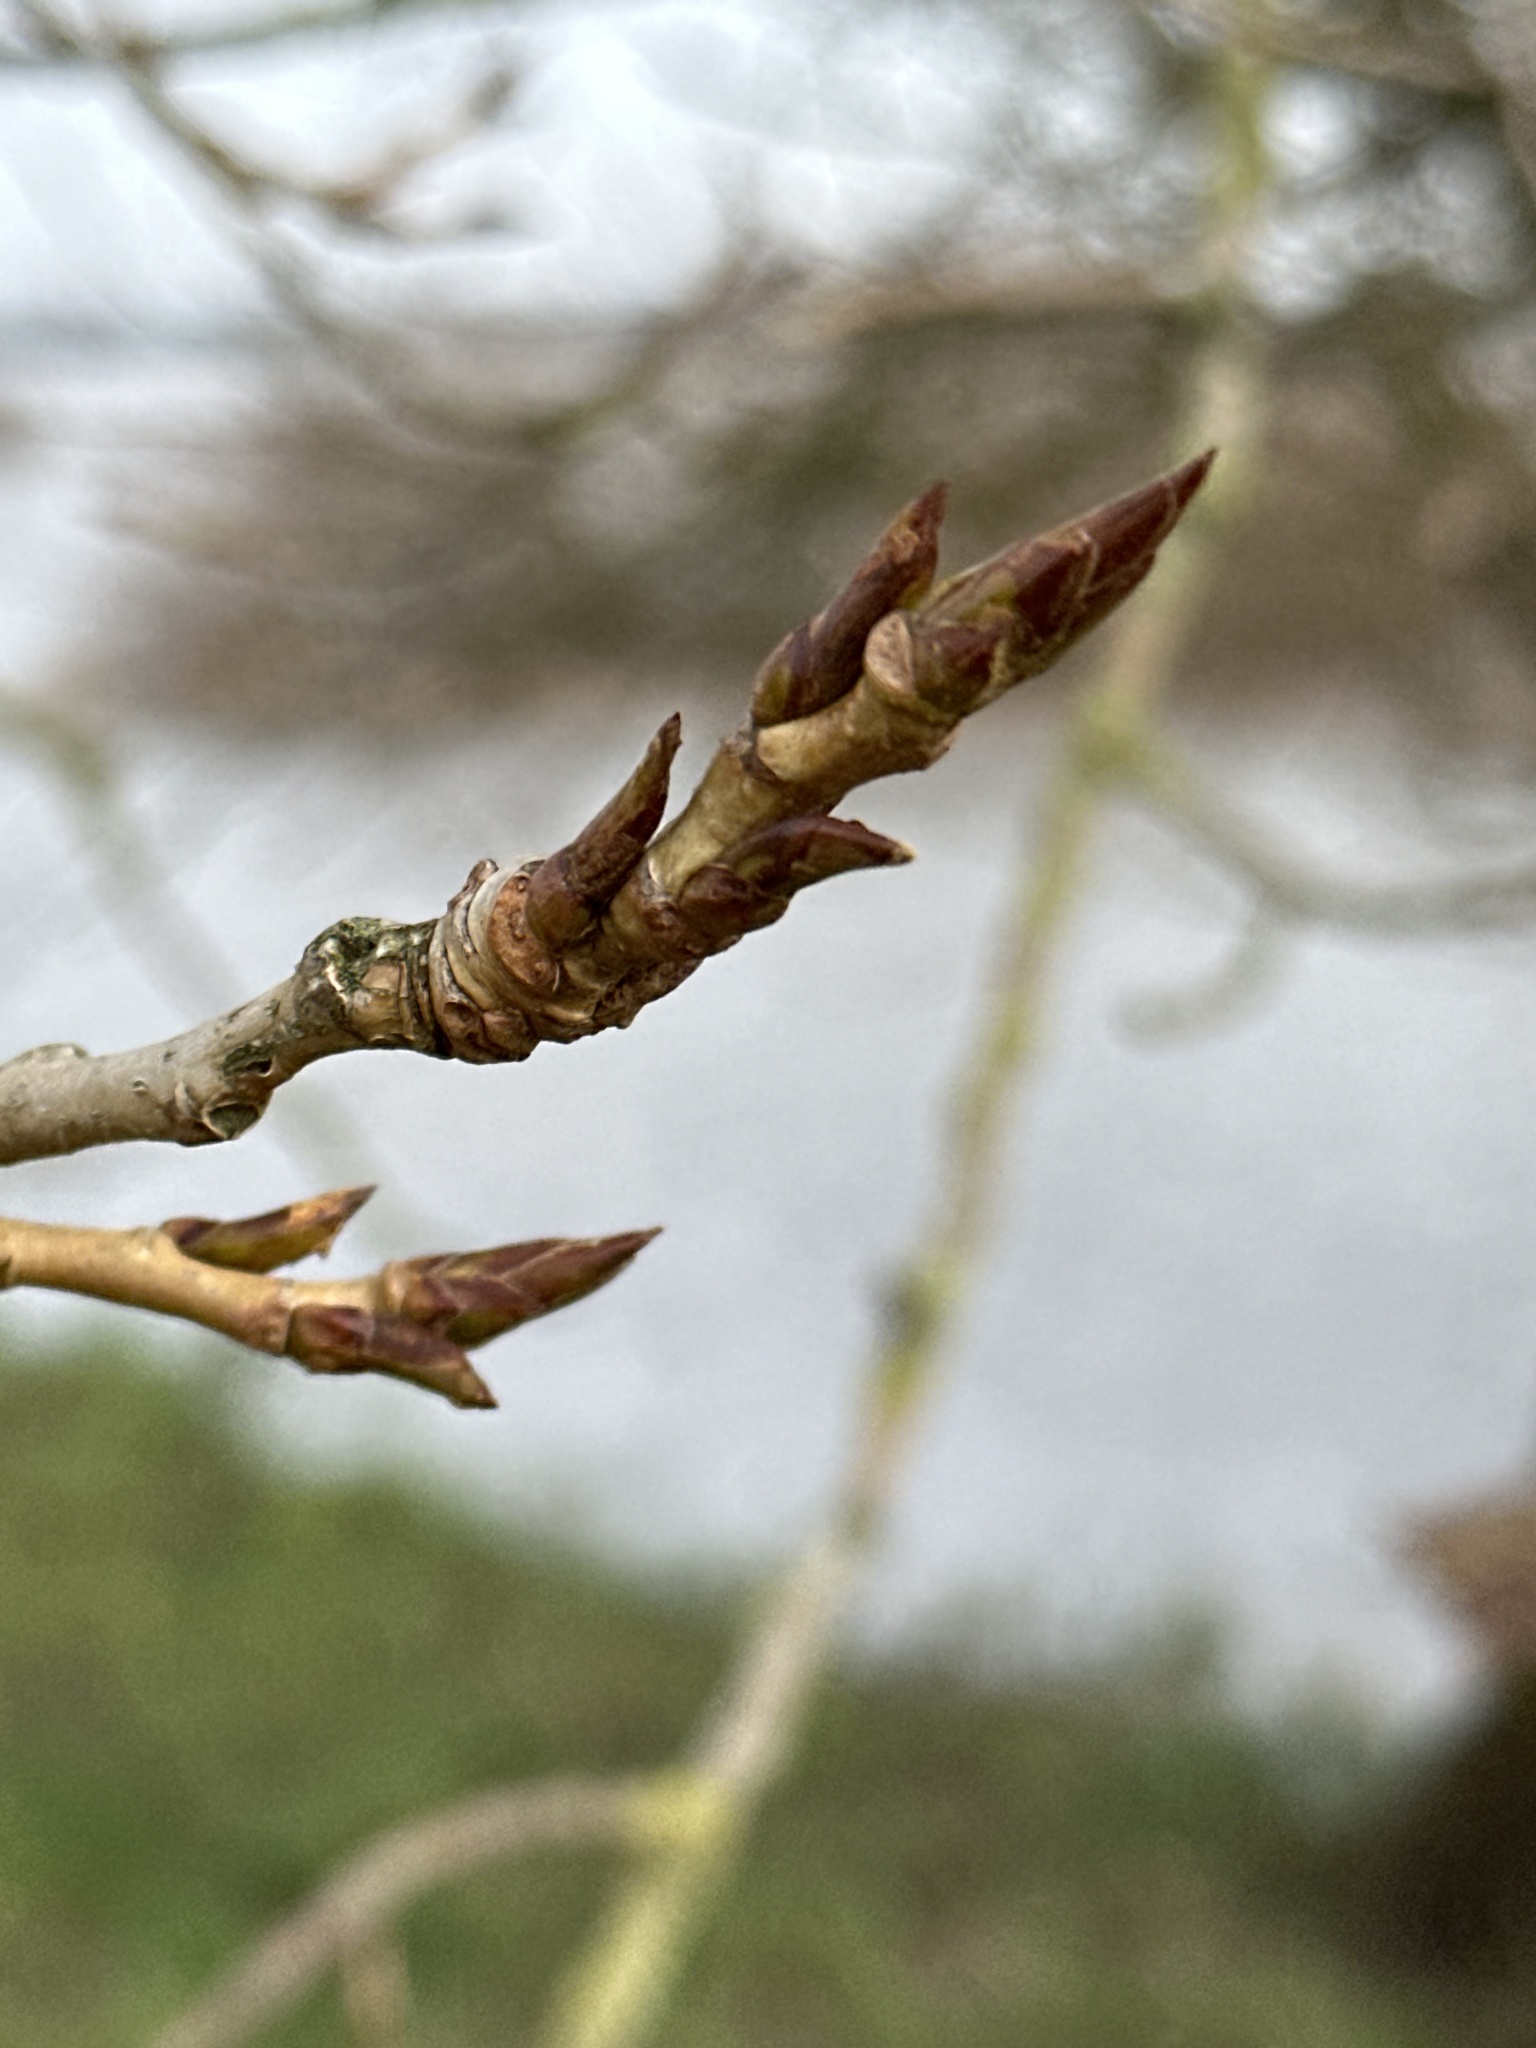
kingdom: Plantae
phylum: Tracheophyta
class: Magnoliopsida
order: Malpighiales
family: Salicaceae
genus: Populus
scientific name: Populus nigra
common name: Black poplar
